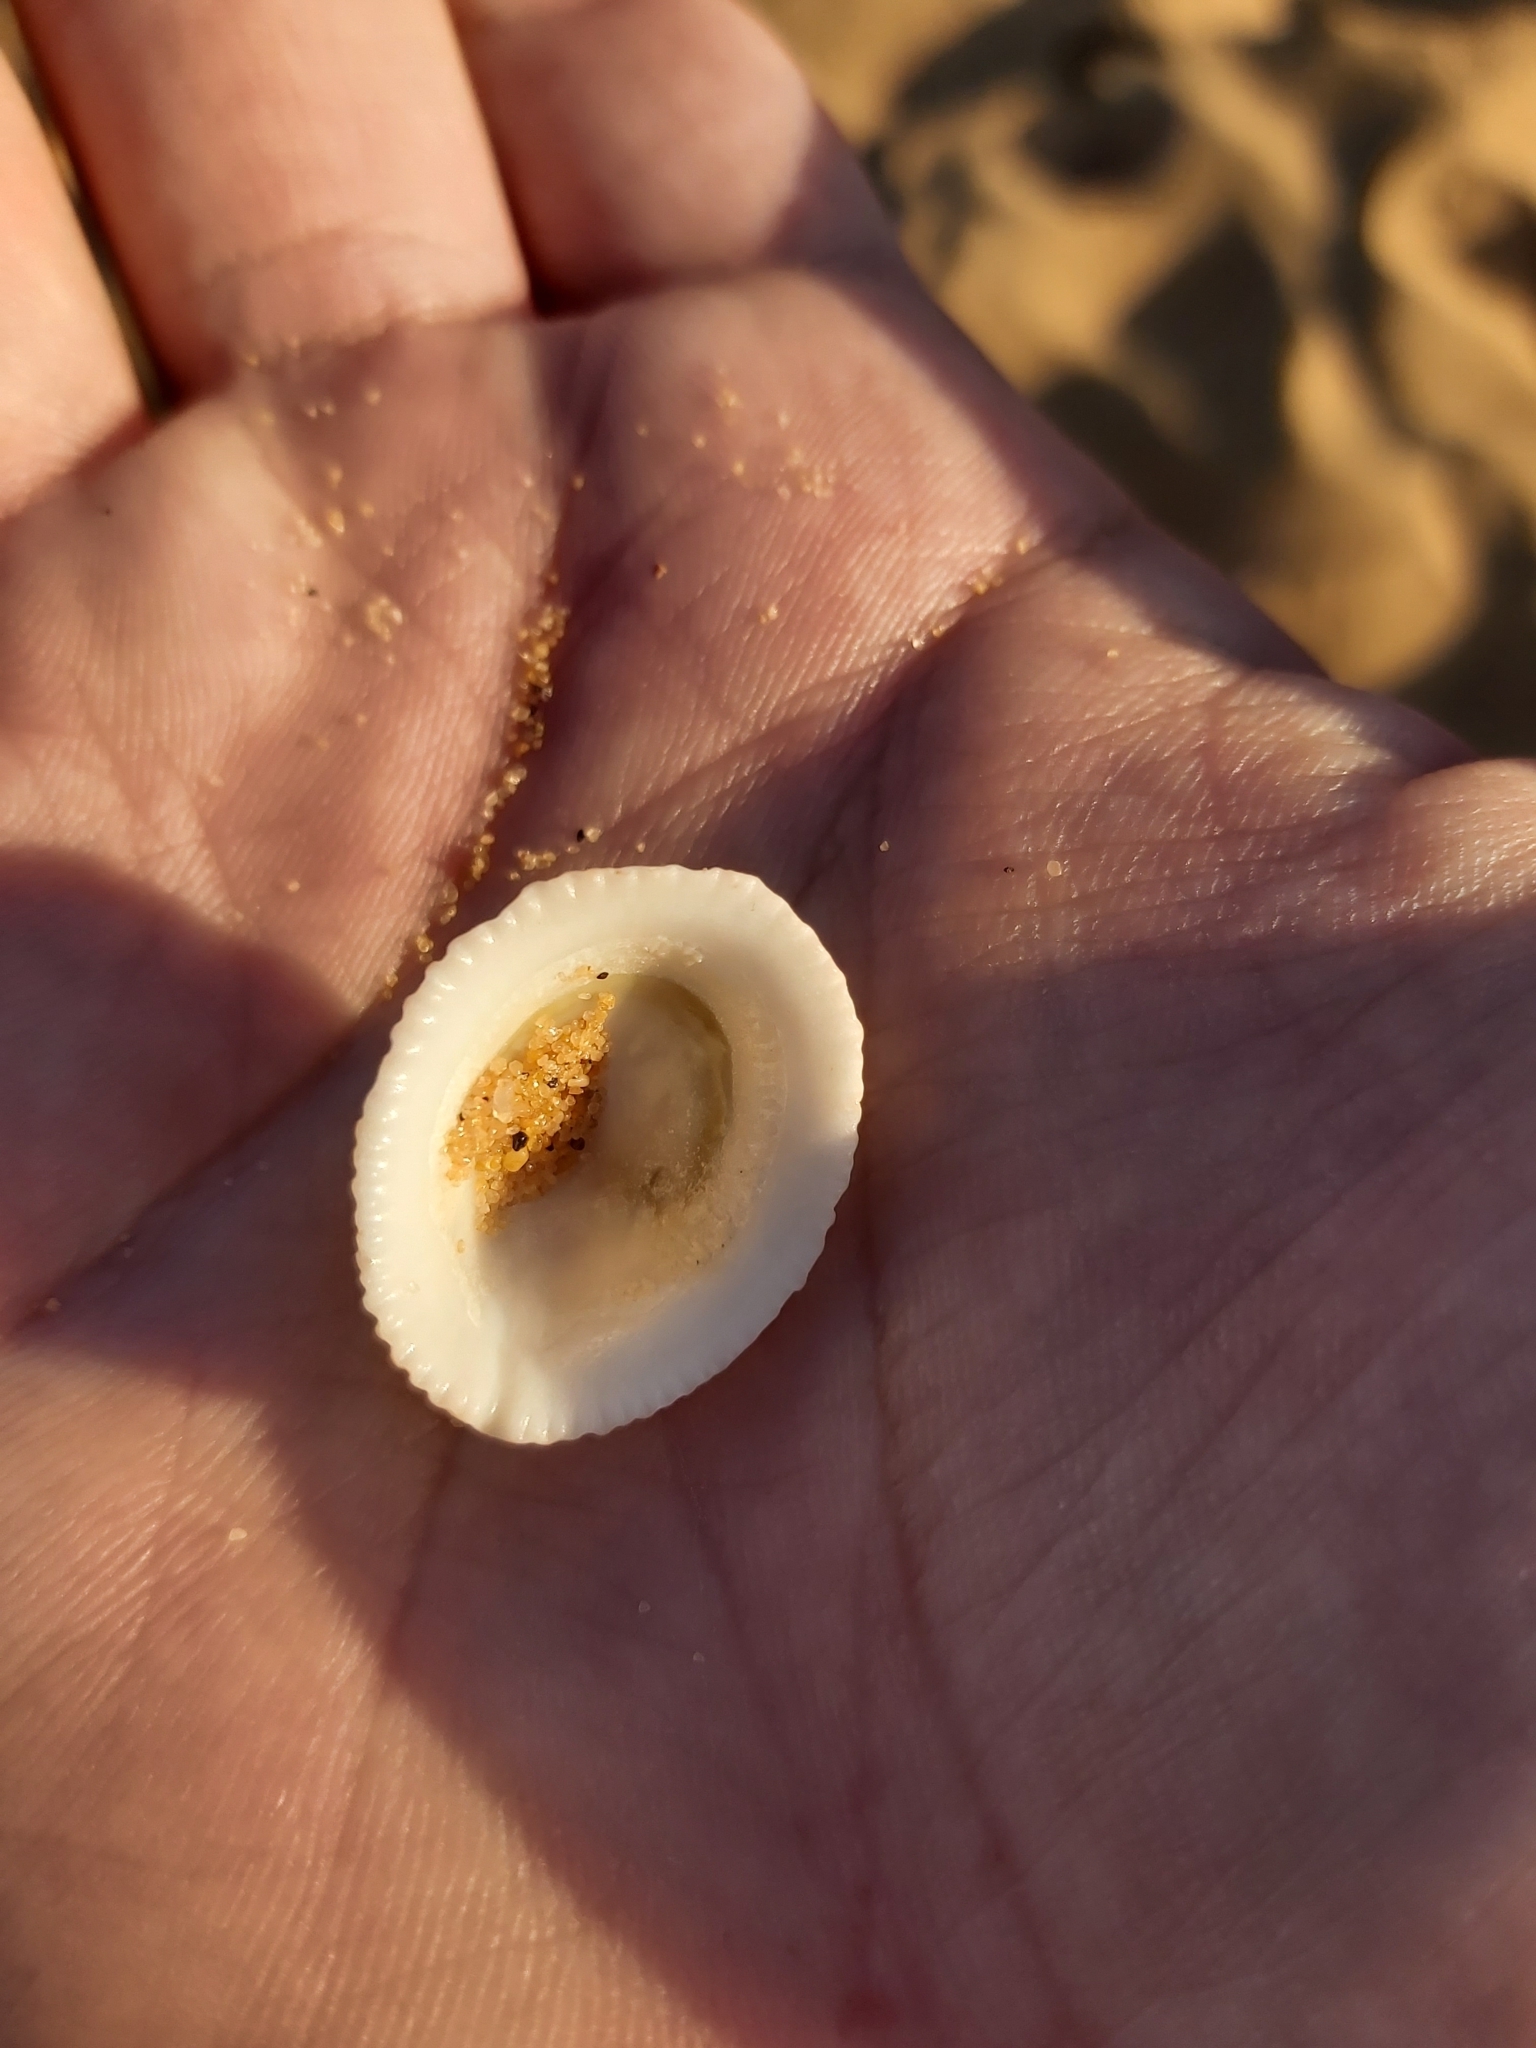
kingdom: Animalia
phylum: Mollusca
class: Gastropoda
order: Lepetellida
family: Fissurellidae
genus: Montfortula
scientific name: Montfortula rugosa
